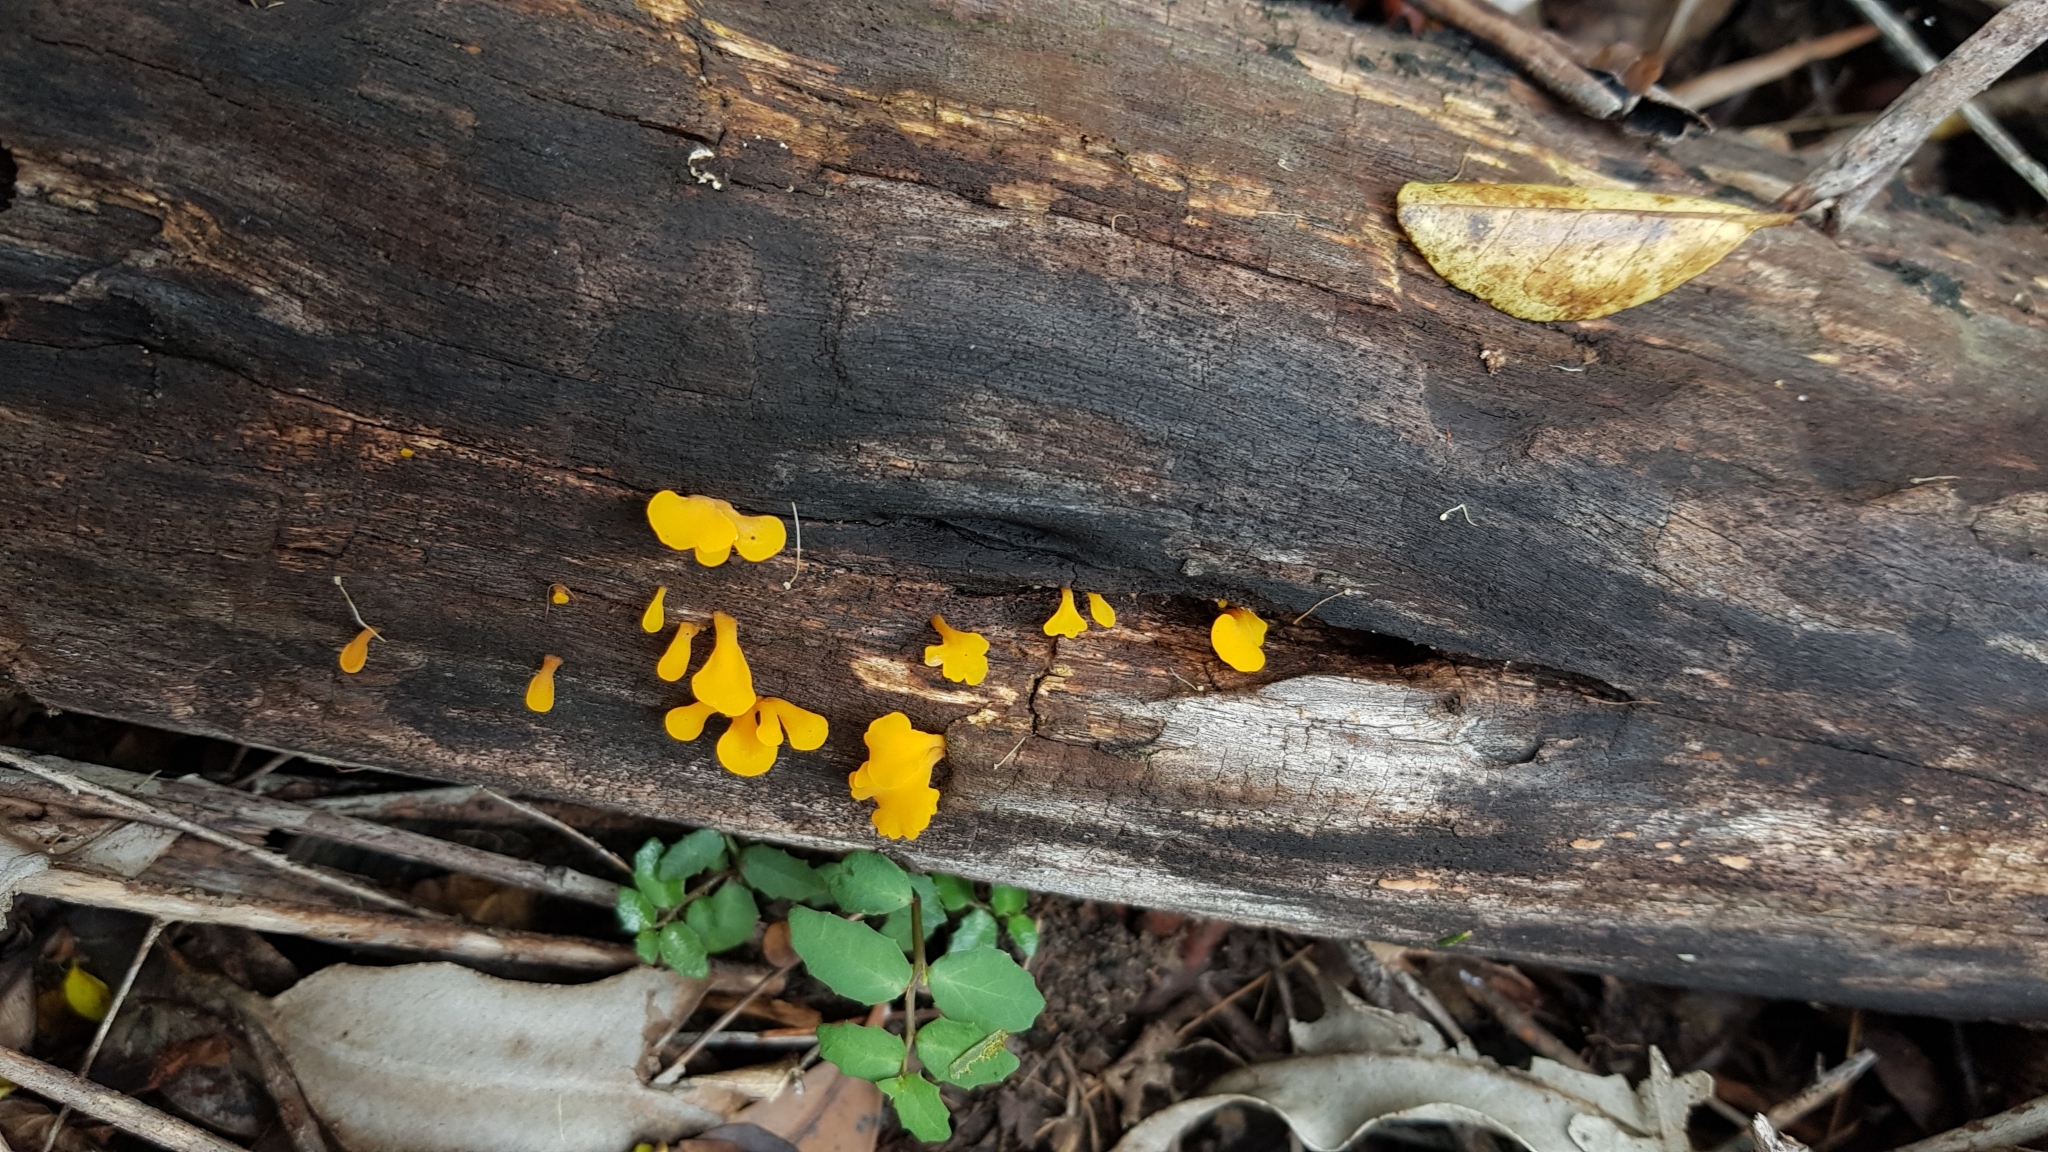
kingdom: Fungi
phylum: Basidiomycota
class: Dacrymycetes
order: Dacrymycetales
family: Dacrymycetaceae
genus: Dacrymyces
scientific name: Dacrymyces spathularius
